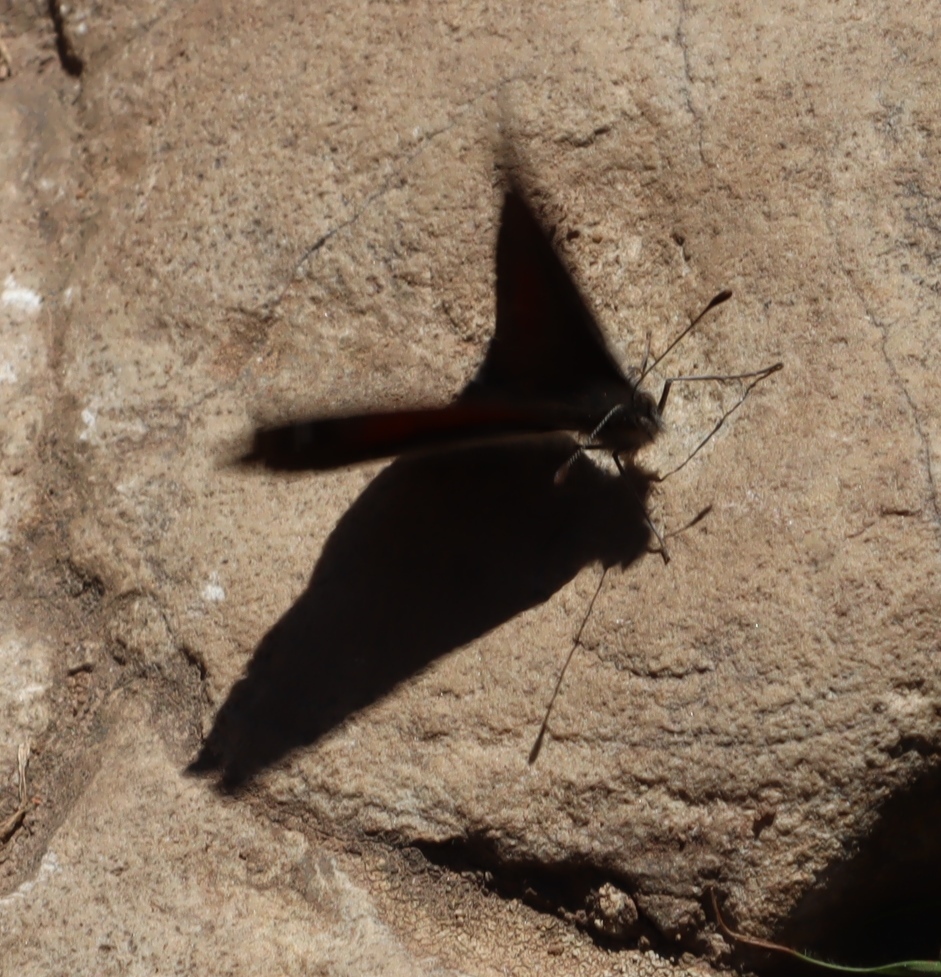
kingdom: Animalia
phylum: Arthropoda
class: Insecta
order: Lepidoptera
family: Nymphalidae
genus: Stygionympha
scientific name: Stygionympha vigilans
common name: Western hillside brown
